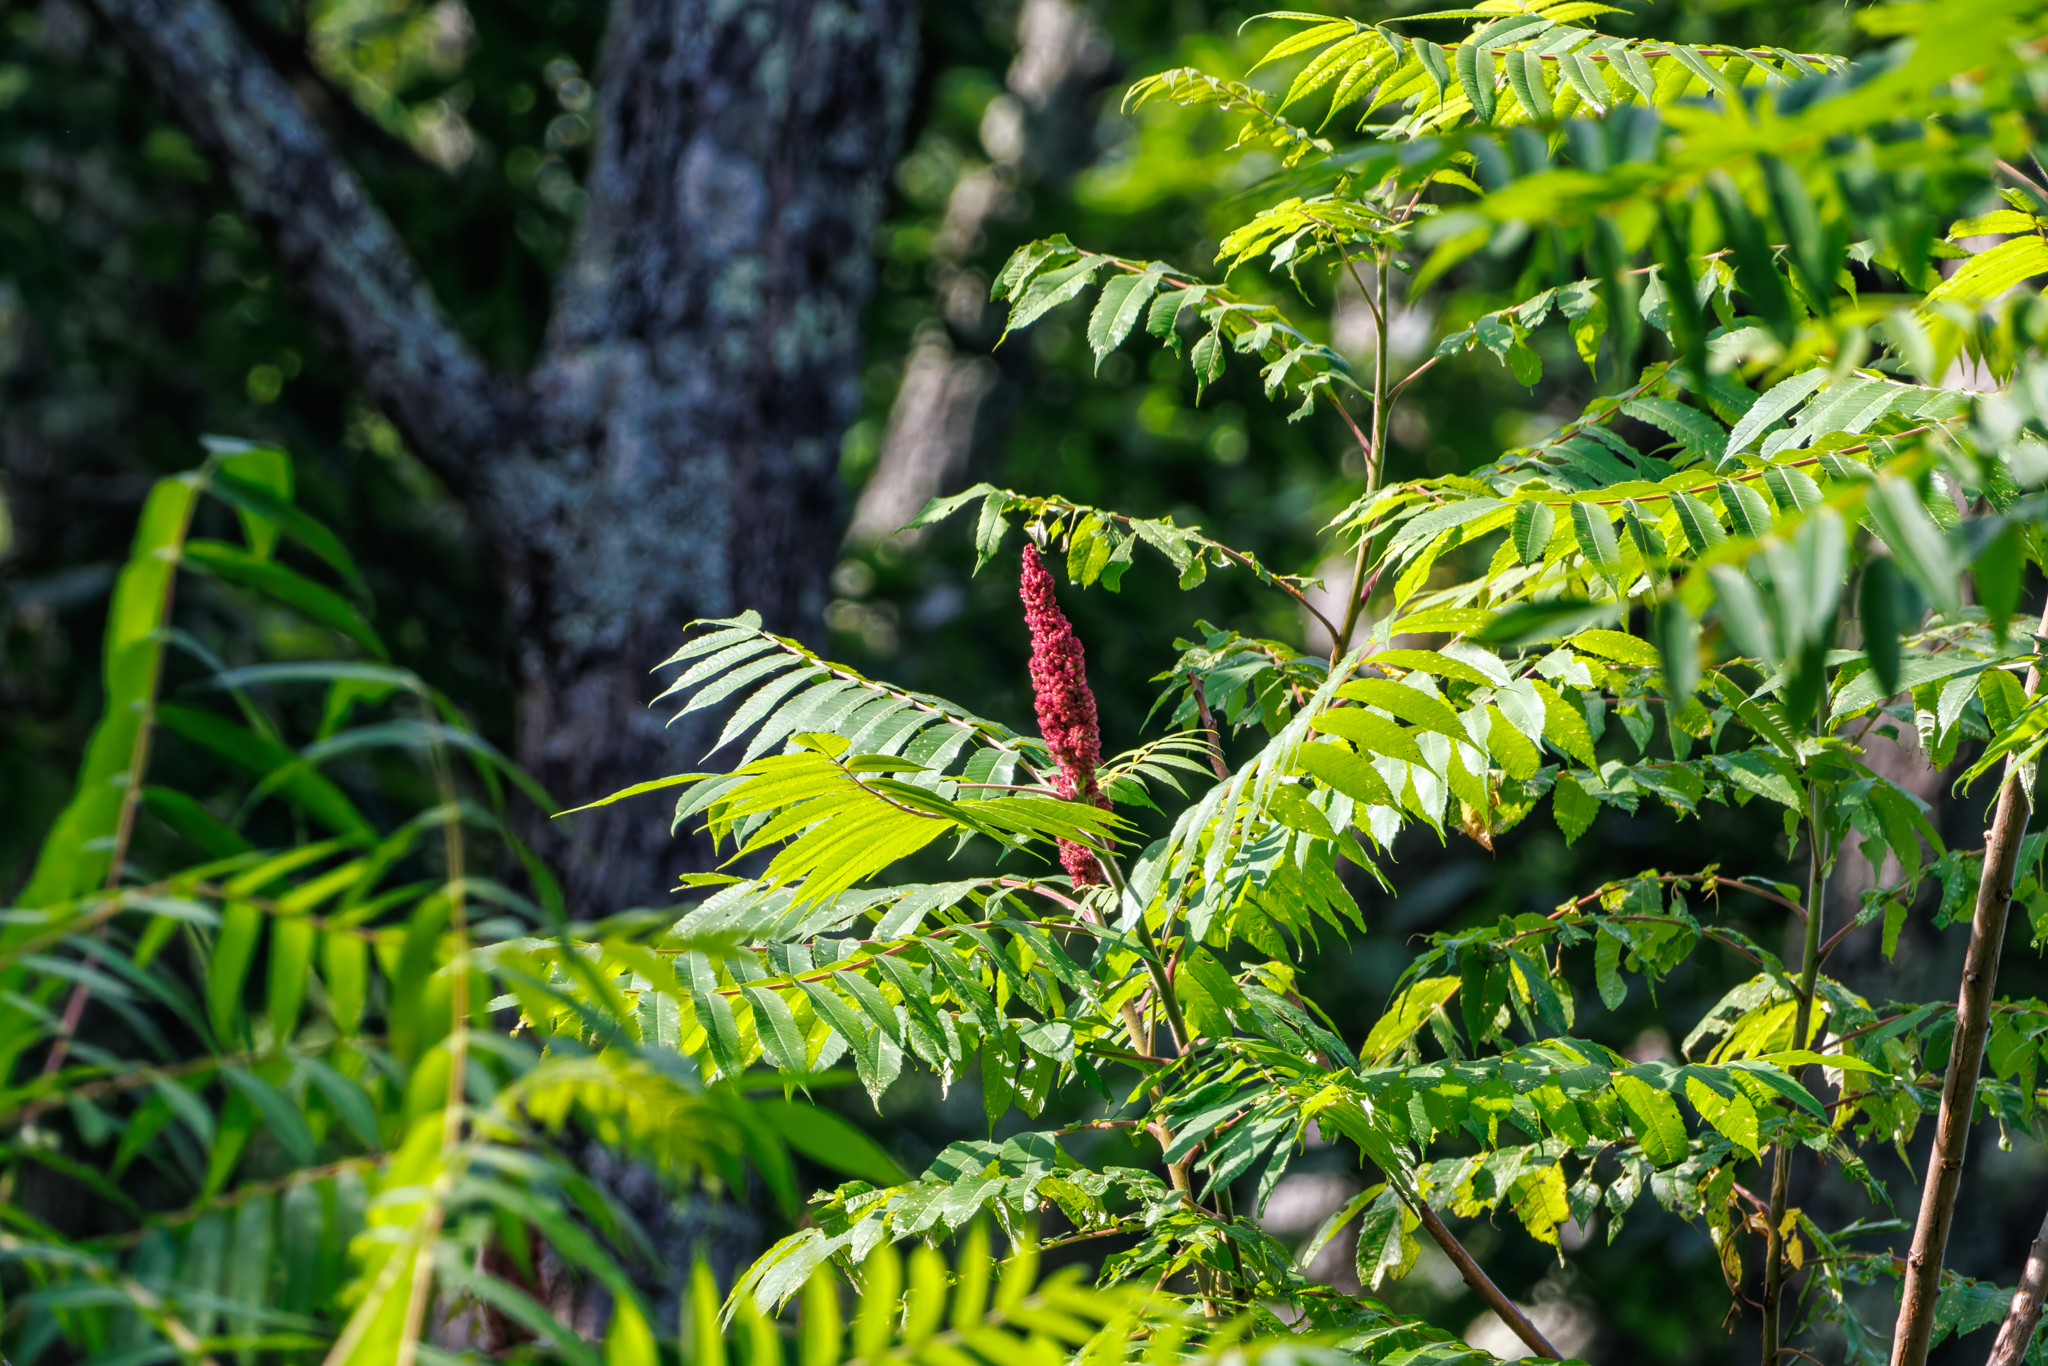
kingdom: Plantae
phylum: Tracheophyta
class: Magnoliopsida
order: Sapindales
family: Anacardiaceae
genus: Rhus
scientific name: Rhus typhina
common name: Staghorn sumac
